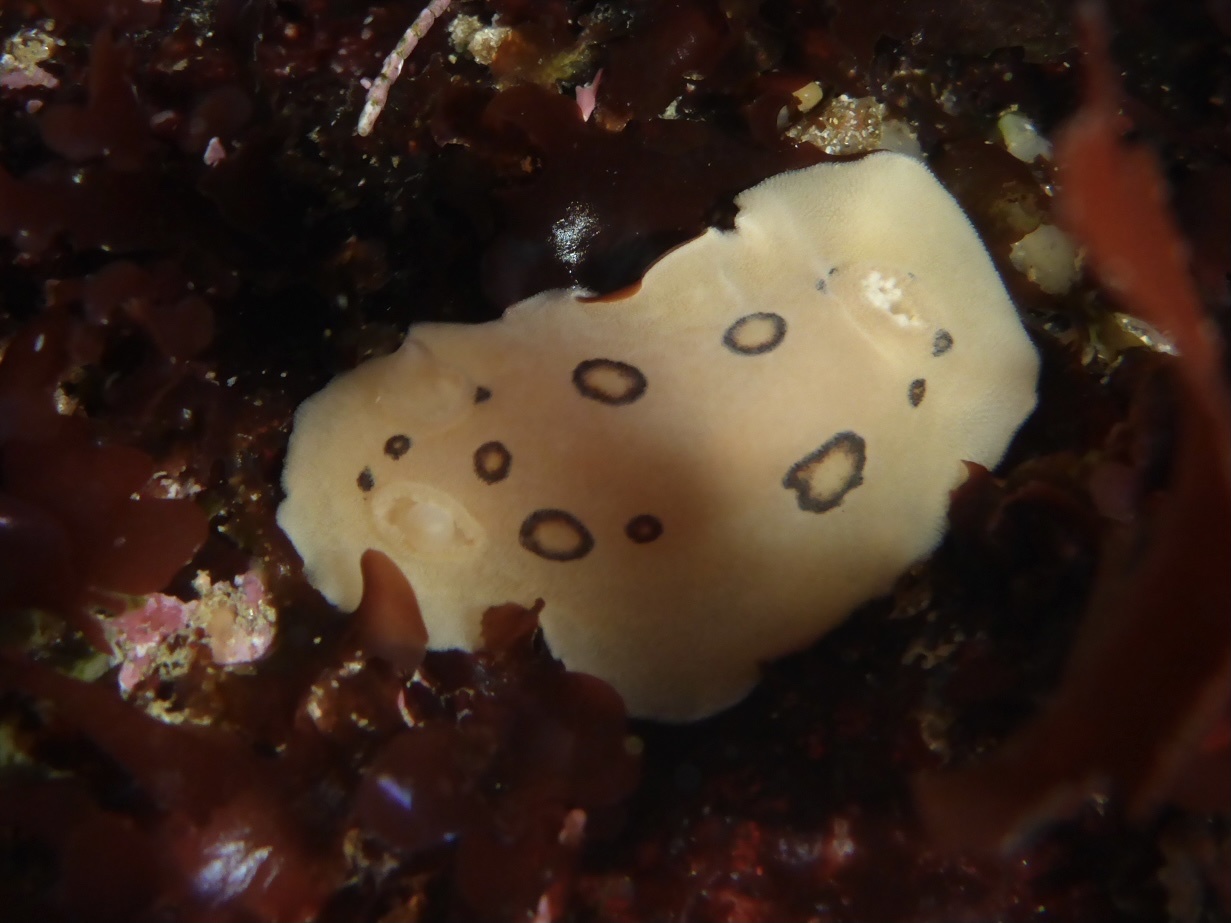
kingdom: Animalia
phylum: Mollusca
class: Gastropoda
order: Nudibranchia
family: Discodorididae
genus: Diaulula
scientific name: Diaulula sandiegensis
